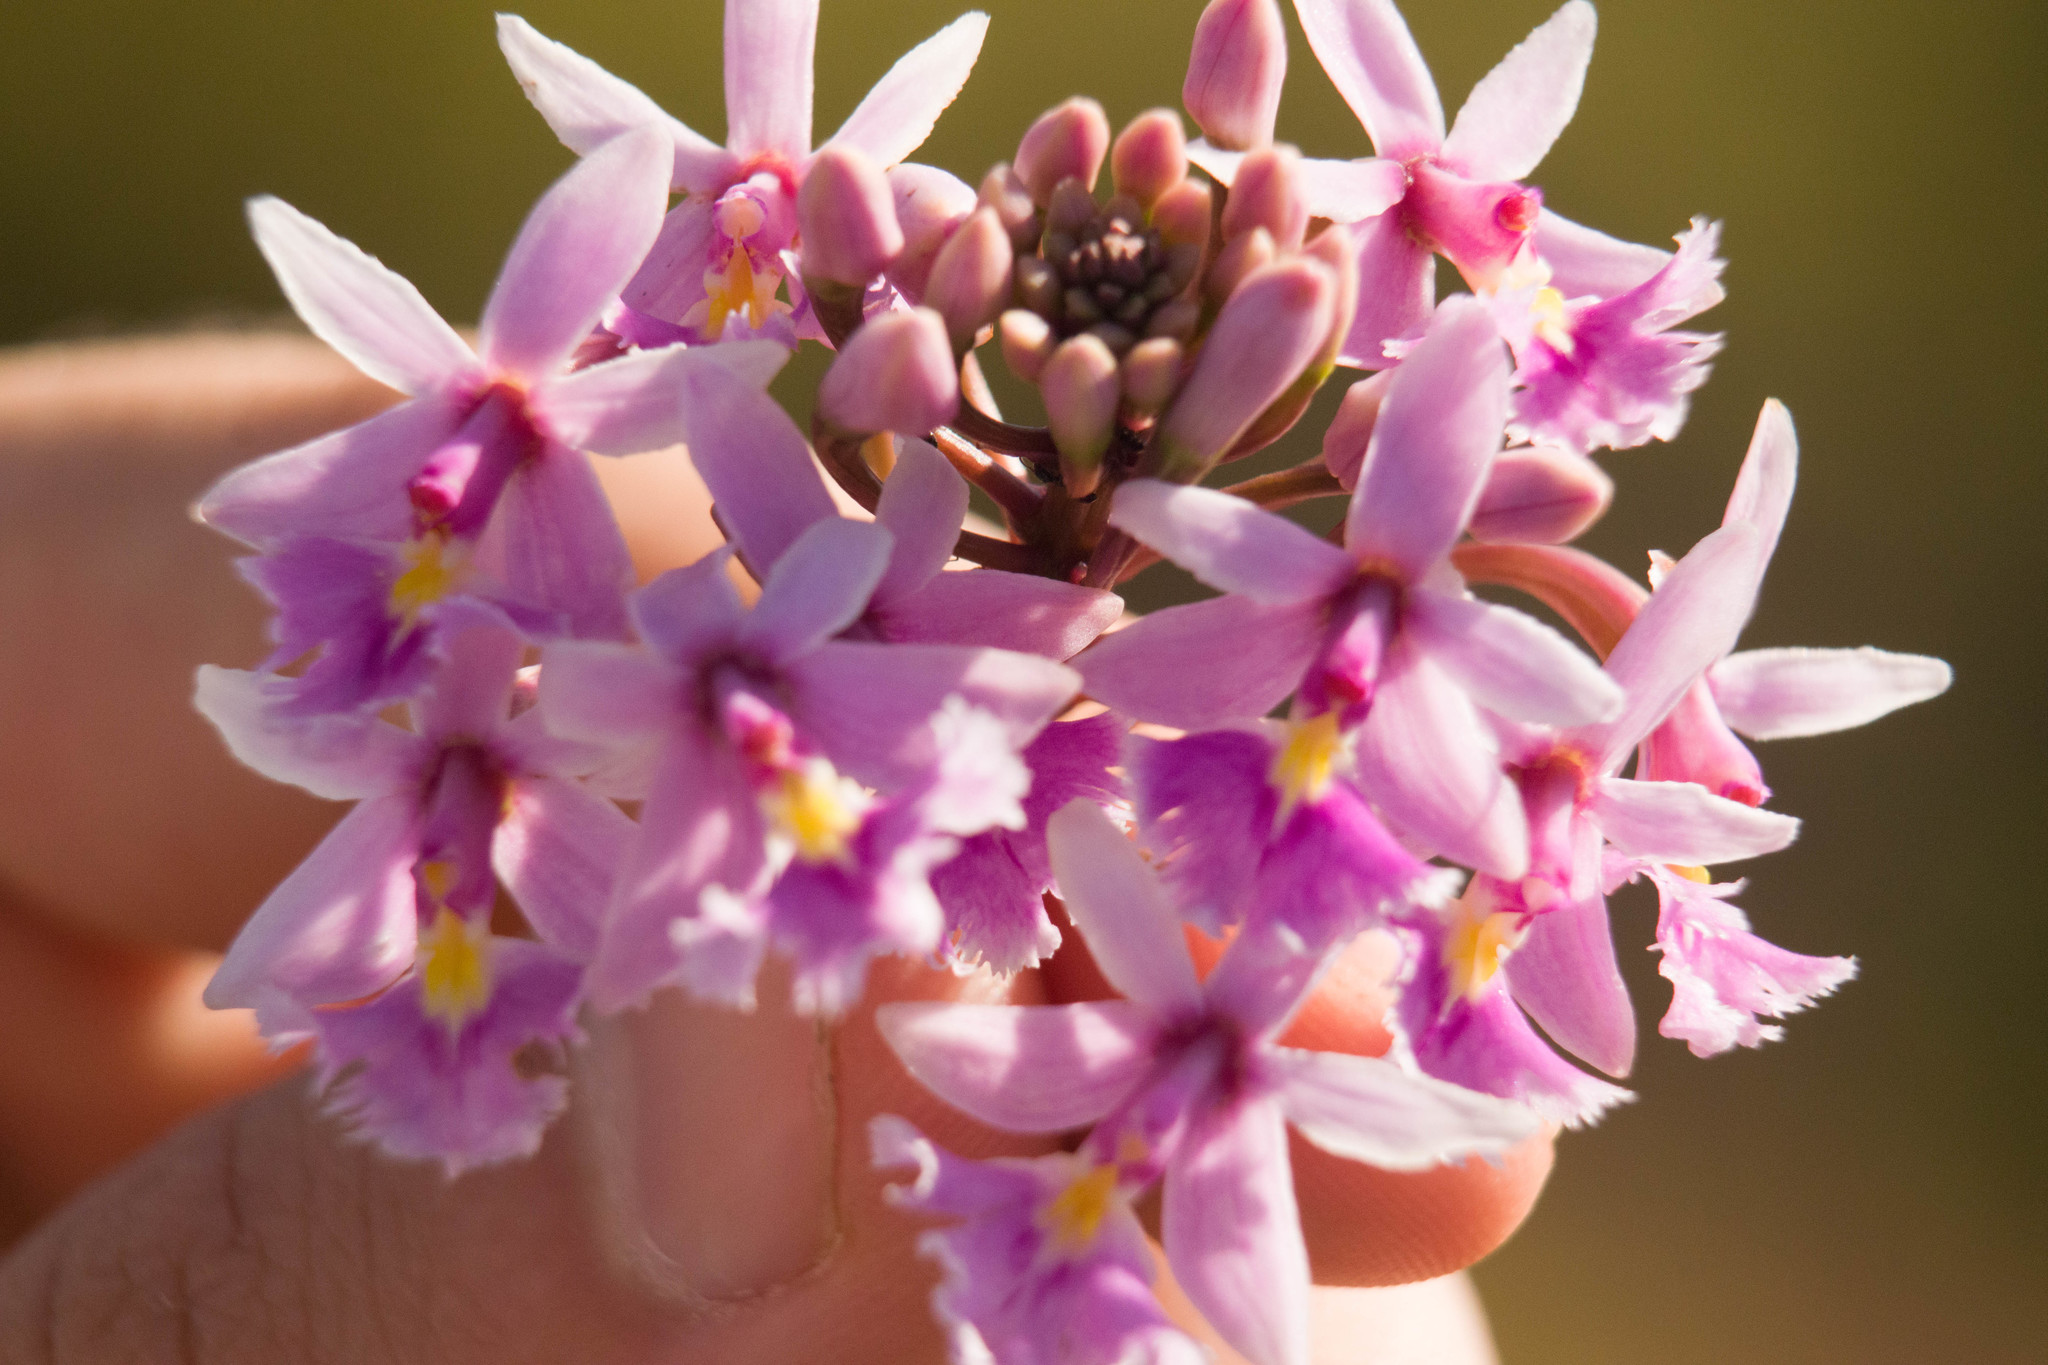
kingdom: Plantae
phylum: Tracheophyta
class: Liliopsida
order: Asparagales
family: Orchidaceae
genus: Epidendrum
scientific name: Epidendrum calanthum
